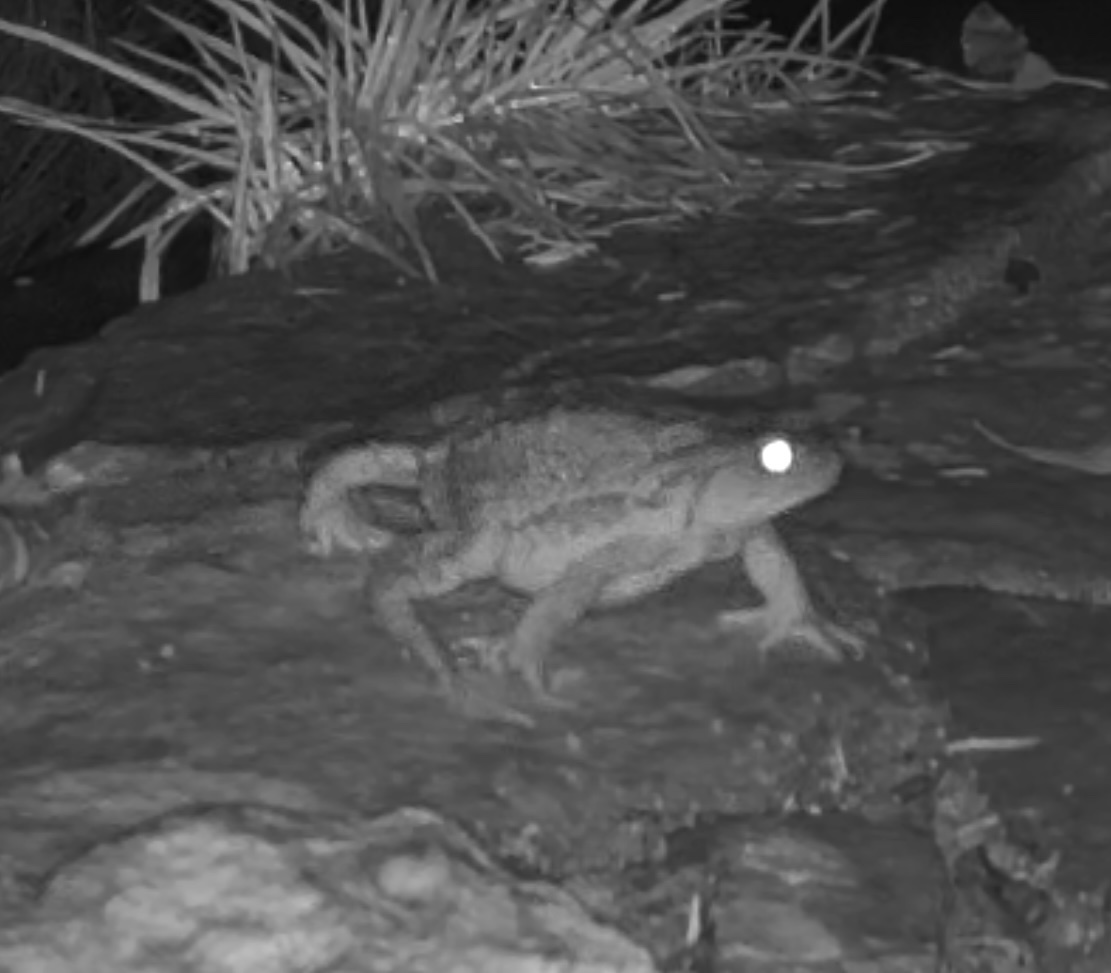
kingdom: Animalia
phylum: Chordata
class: Amphibia
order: Anura
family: Bufonidae
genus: Bufo
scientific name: Bufo spinosus
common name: Western common toad
